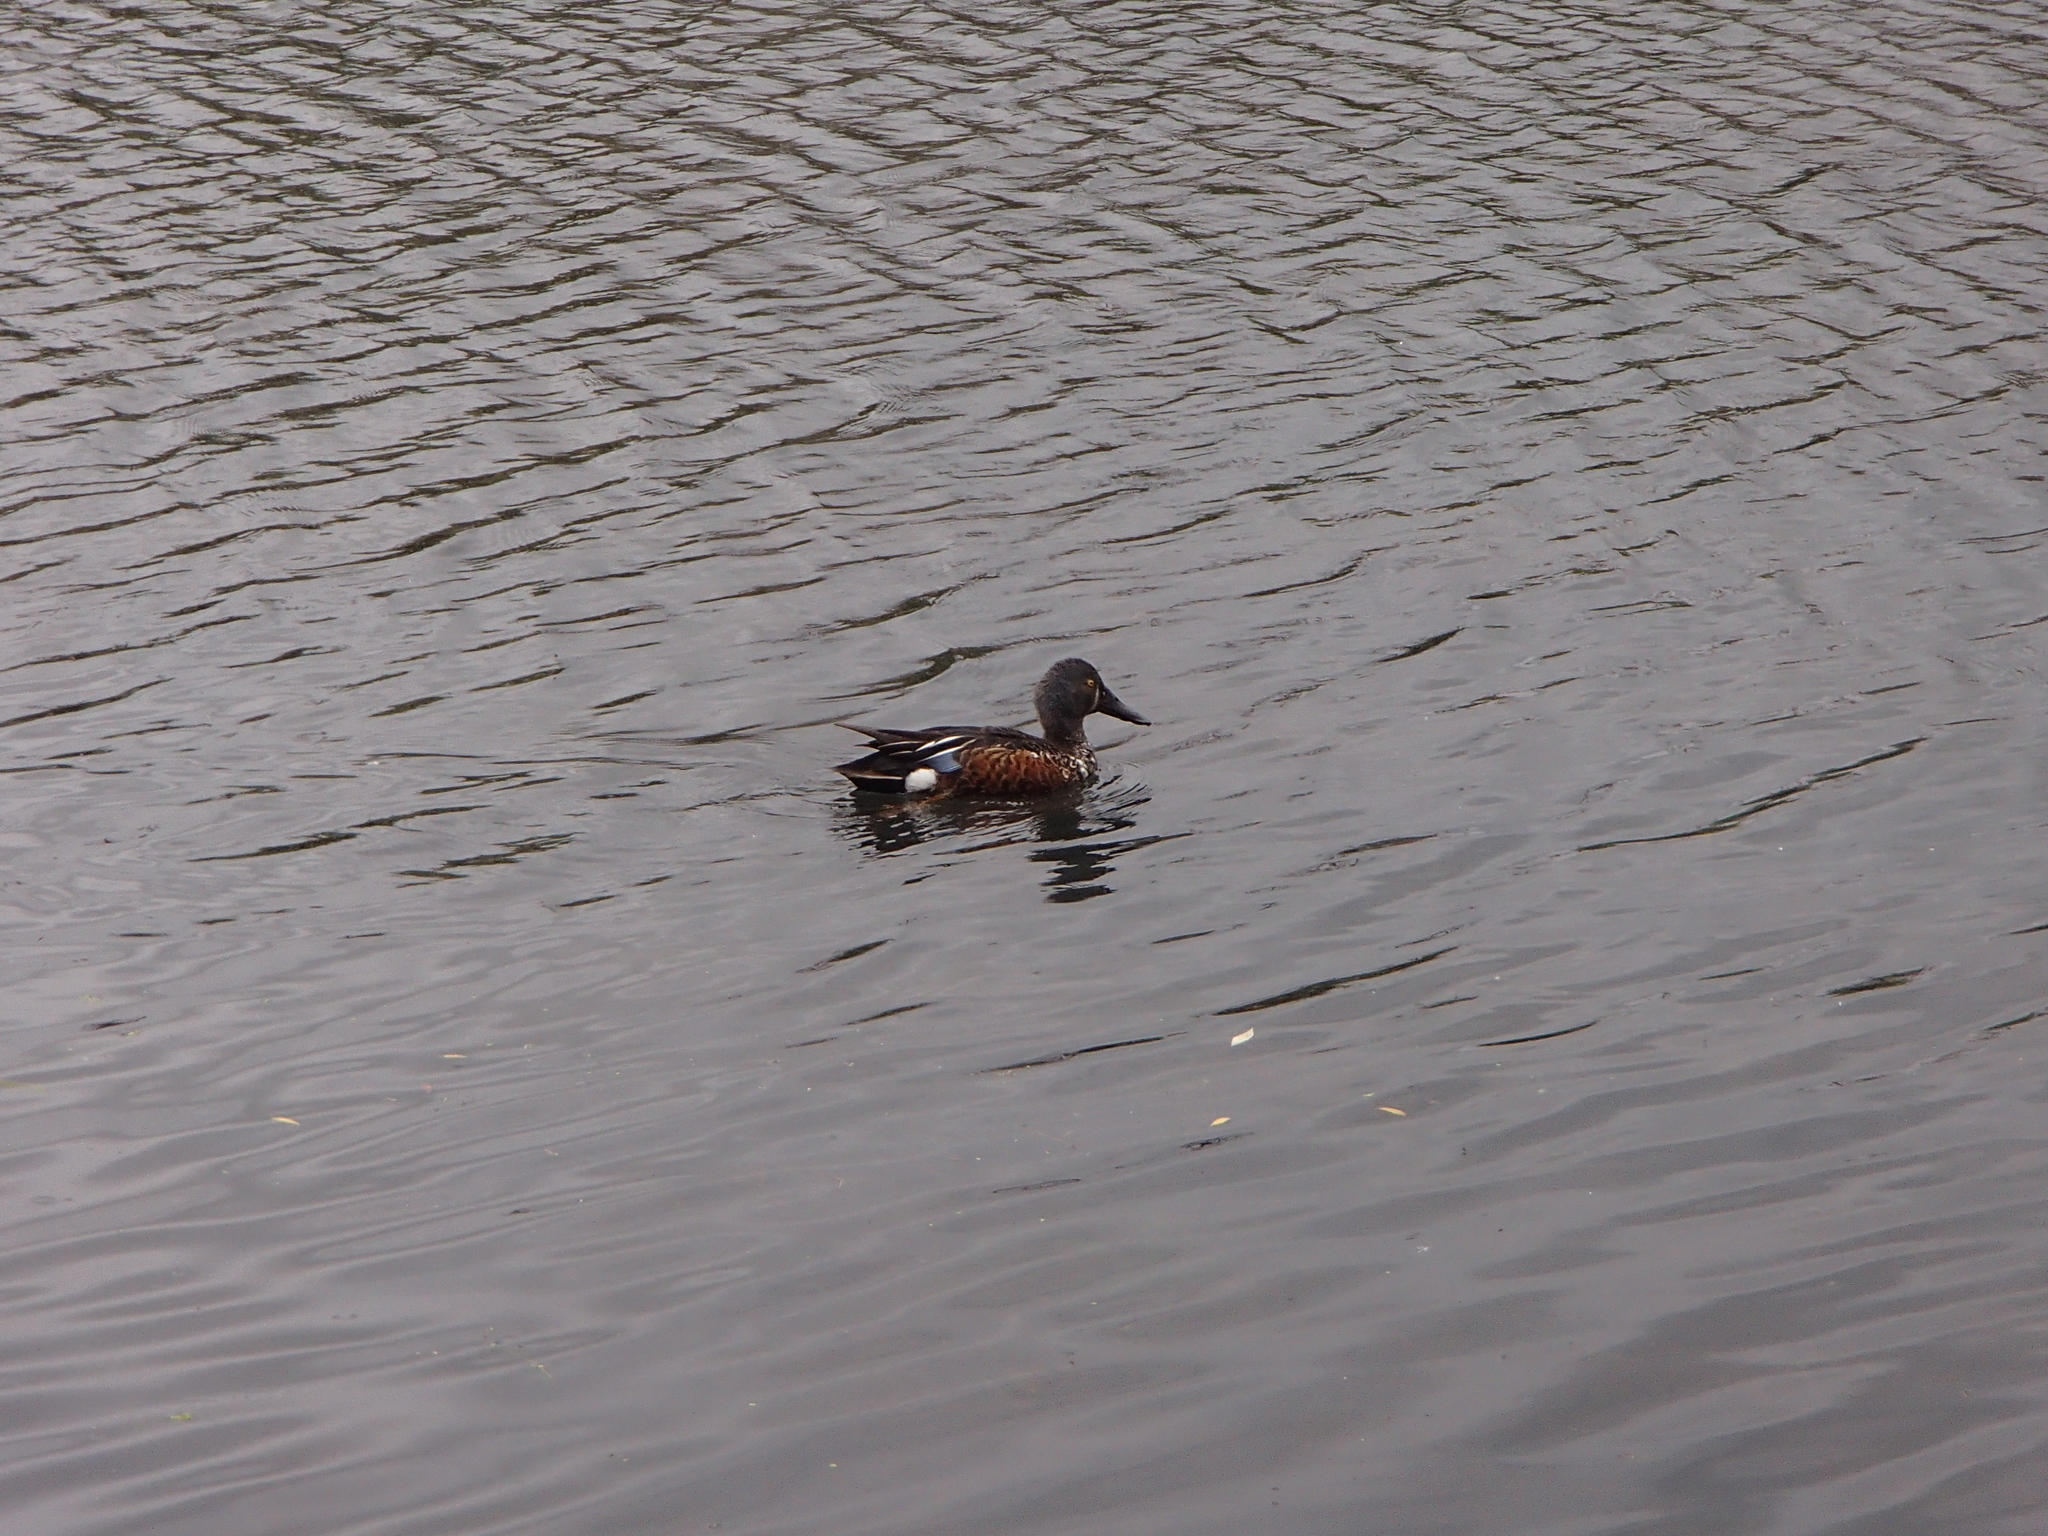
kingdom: Animalia
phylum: Chordata
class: Aves
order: Anseriformes
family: Anatidae
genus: Spatula
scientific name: Spatula rhynchotis
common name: Australian shoveler
